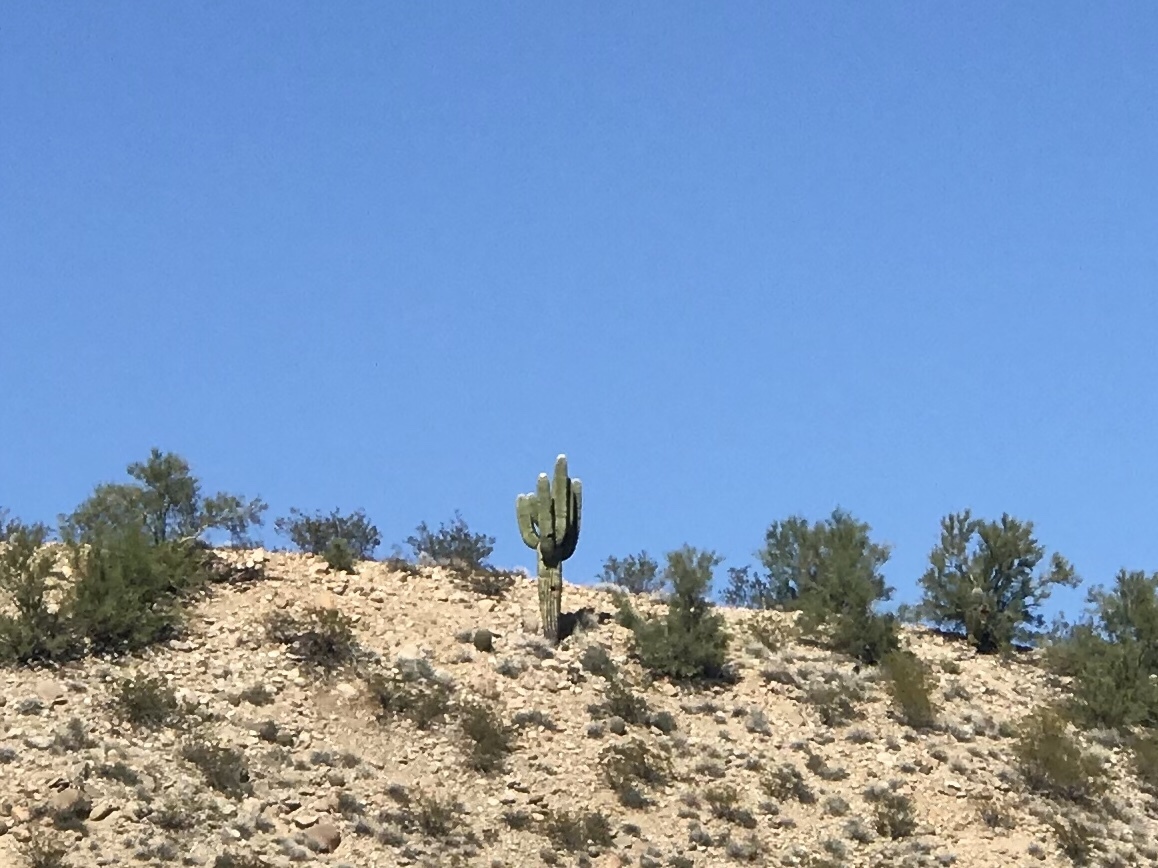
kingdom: Plantae
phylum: Tracheophyta
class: Magnoliopsida
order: Caryophyllales
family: Cactaceae
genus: Carnegiea
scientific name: Carnegiea gigantea
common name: Saguaro
